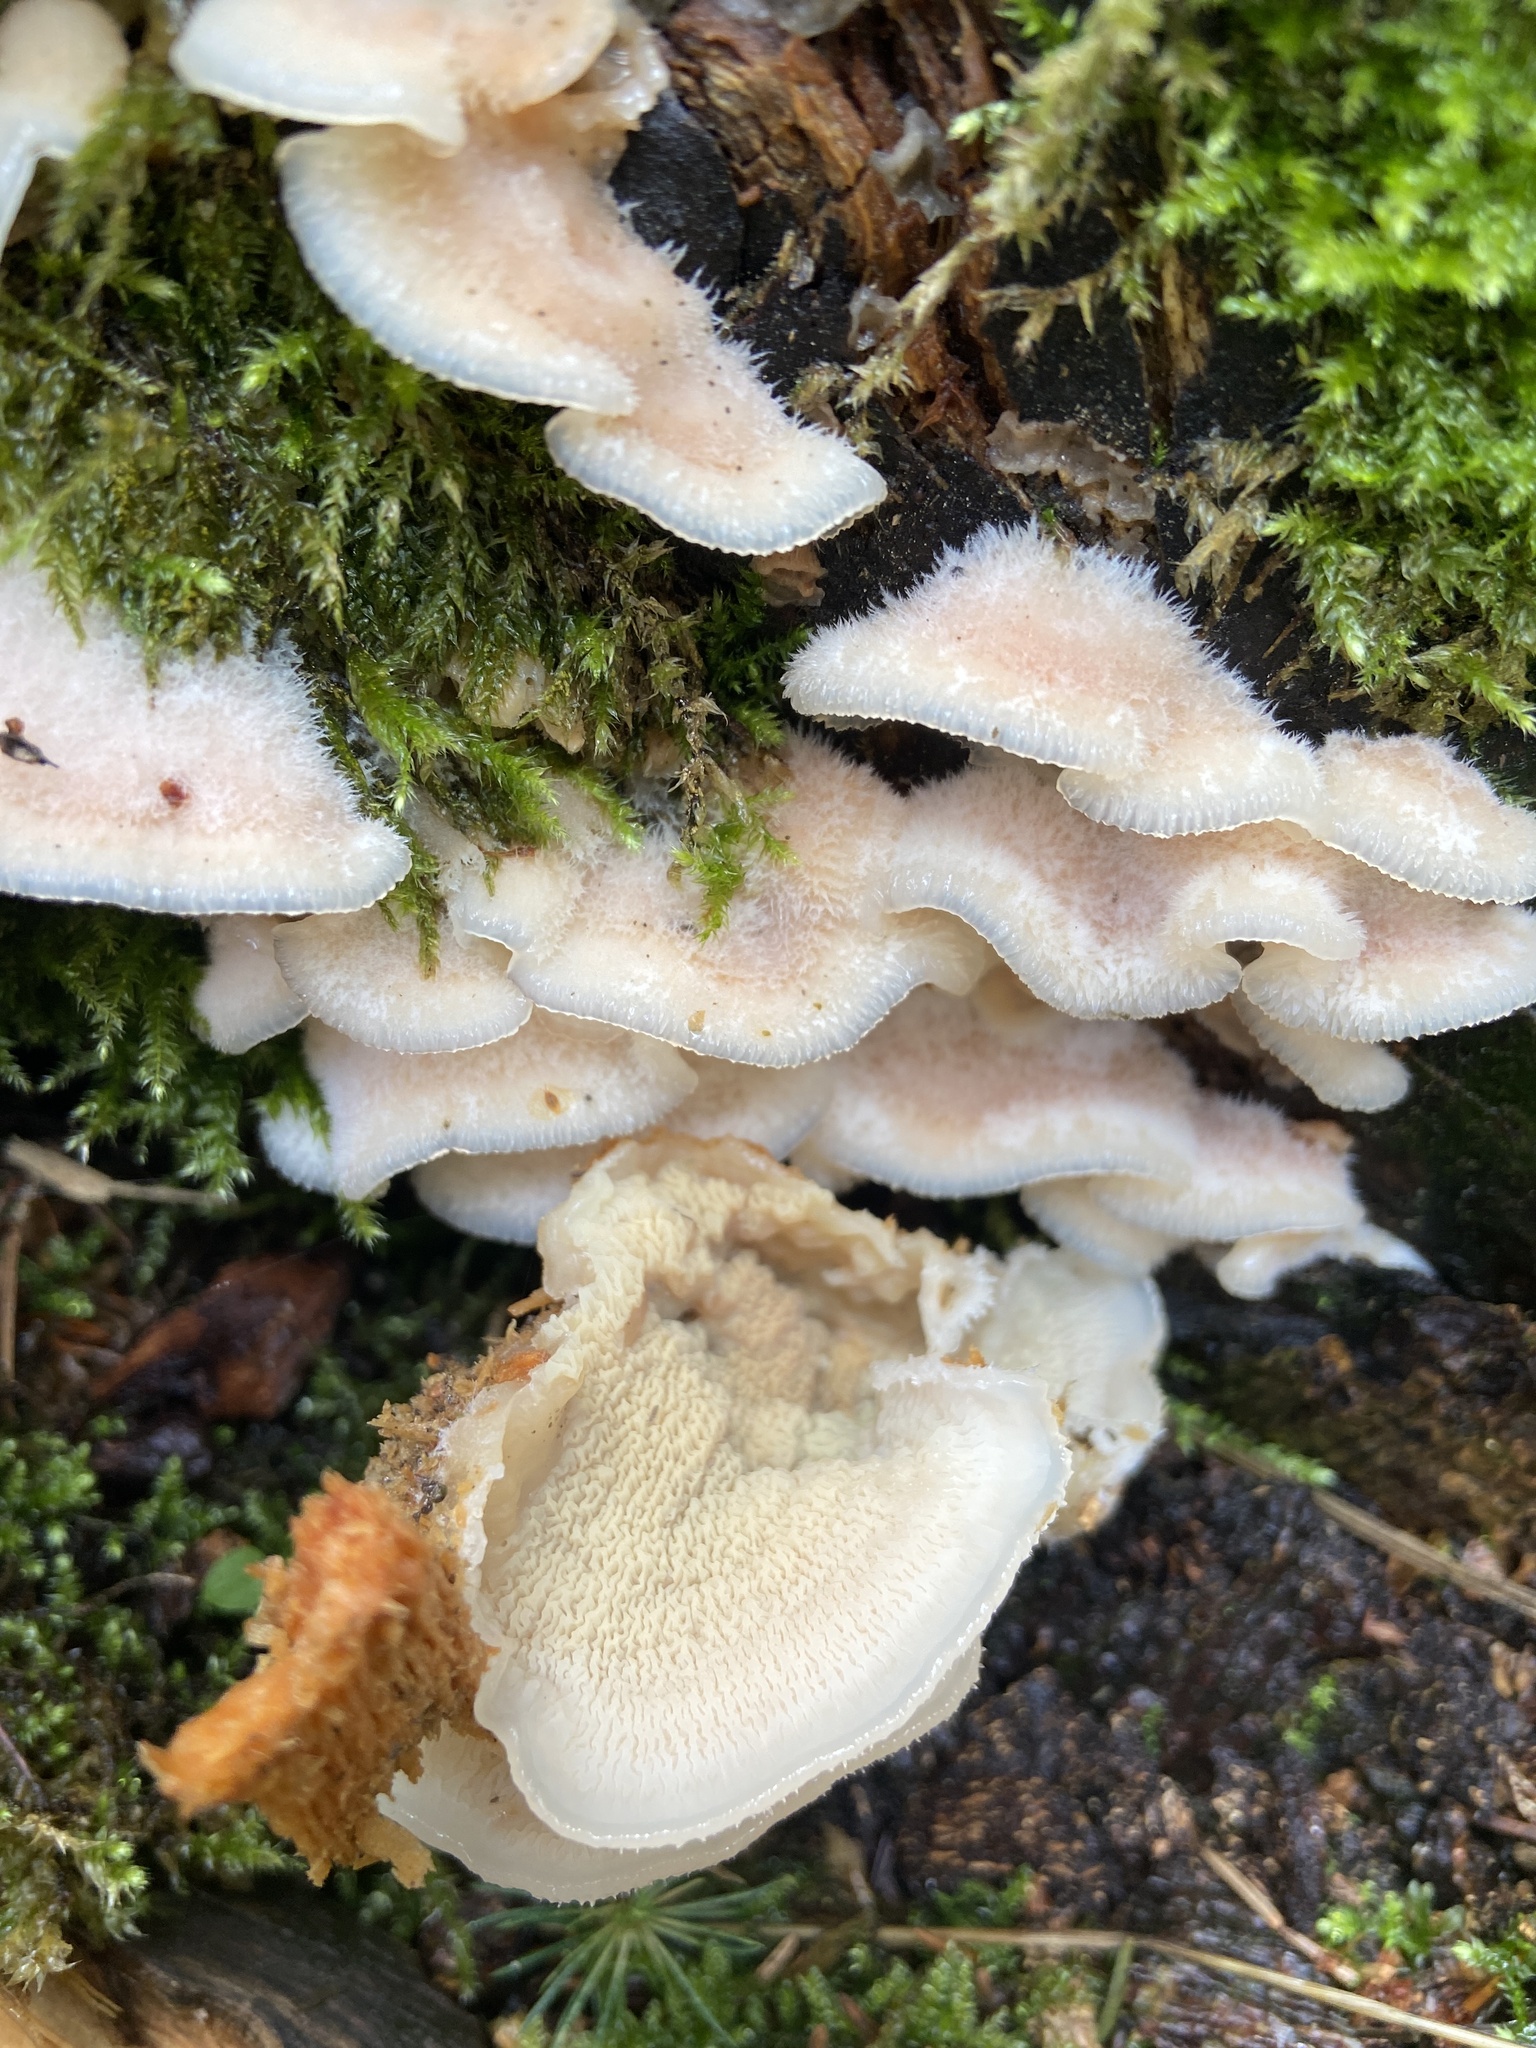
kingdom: Fungi
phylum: Basidiomycota
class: Agaricomycetes
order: Polyporales
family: Meruliaceae
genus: Phlebia
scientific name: Phlebia tremellosa
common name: Jelly rot
